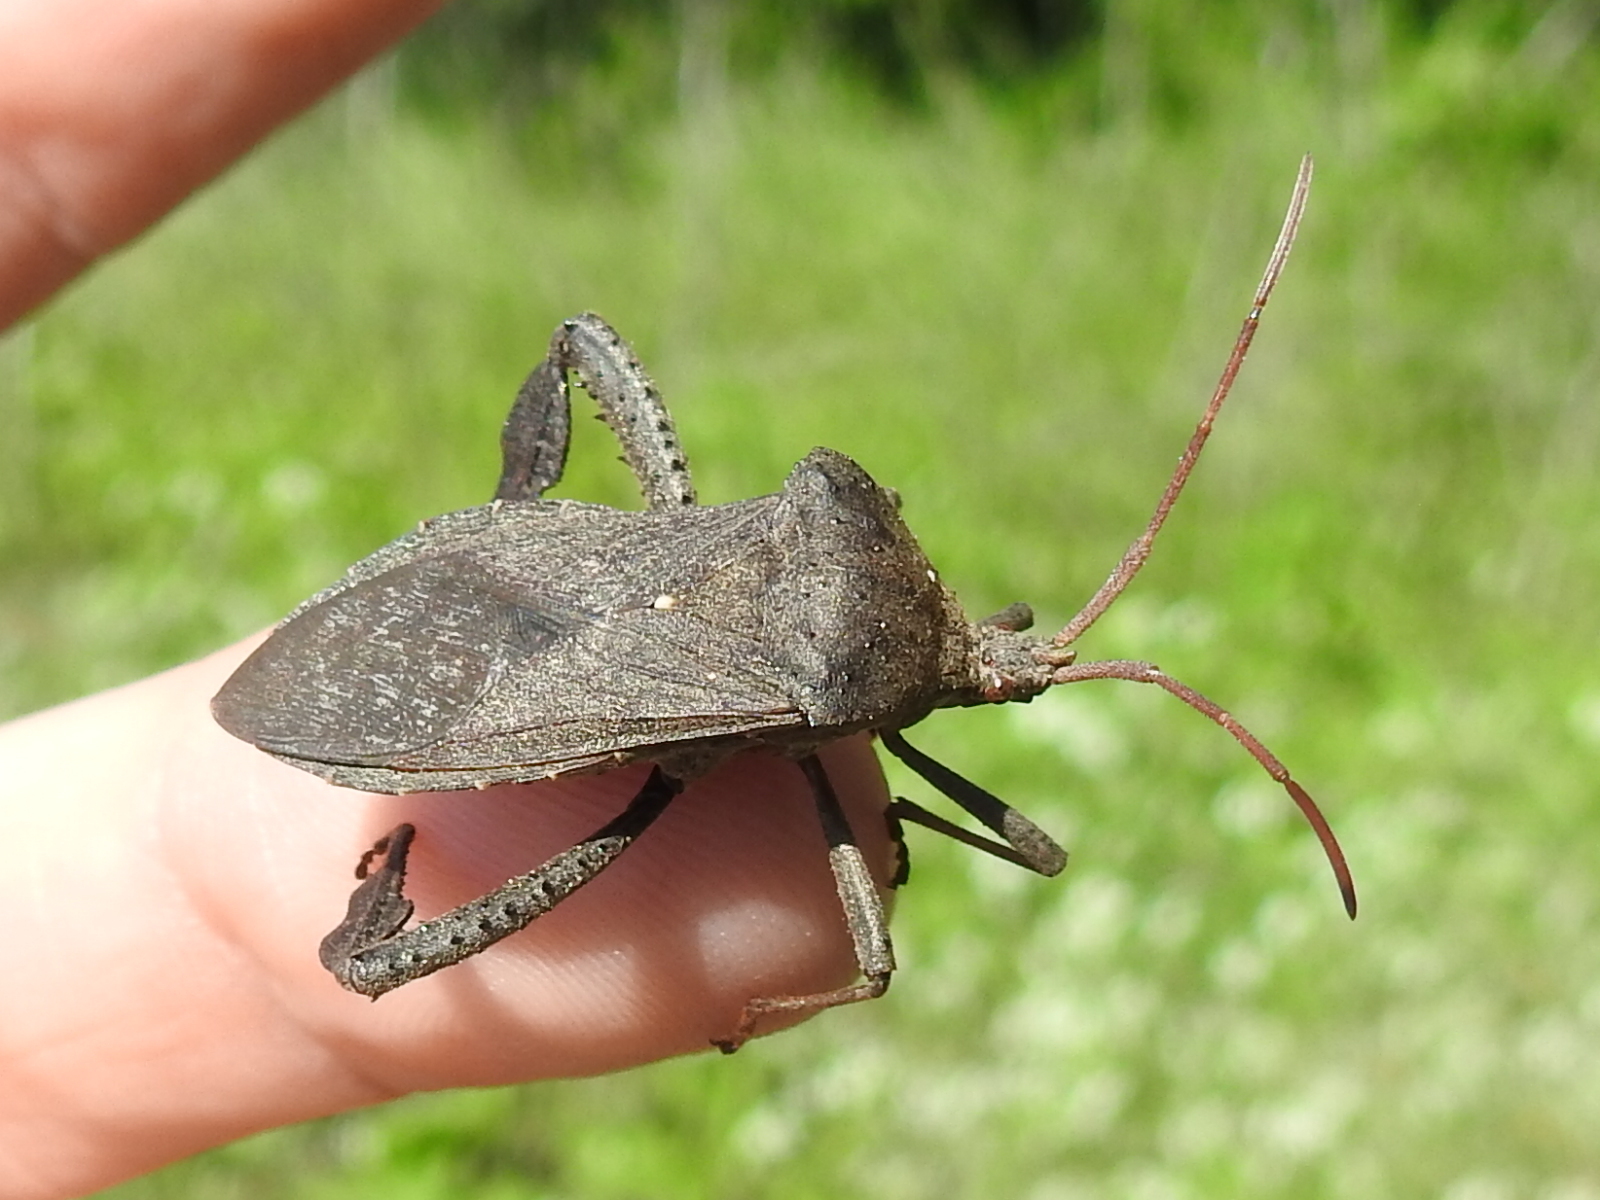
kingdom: Animalia
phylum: Arthropoda
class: Insecta
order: Hemiptera
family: Coreidae
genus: Acanthocephala
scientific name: Acanthocephala femorata
